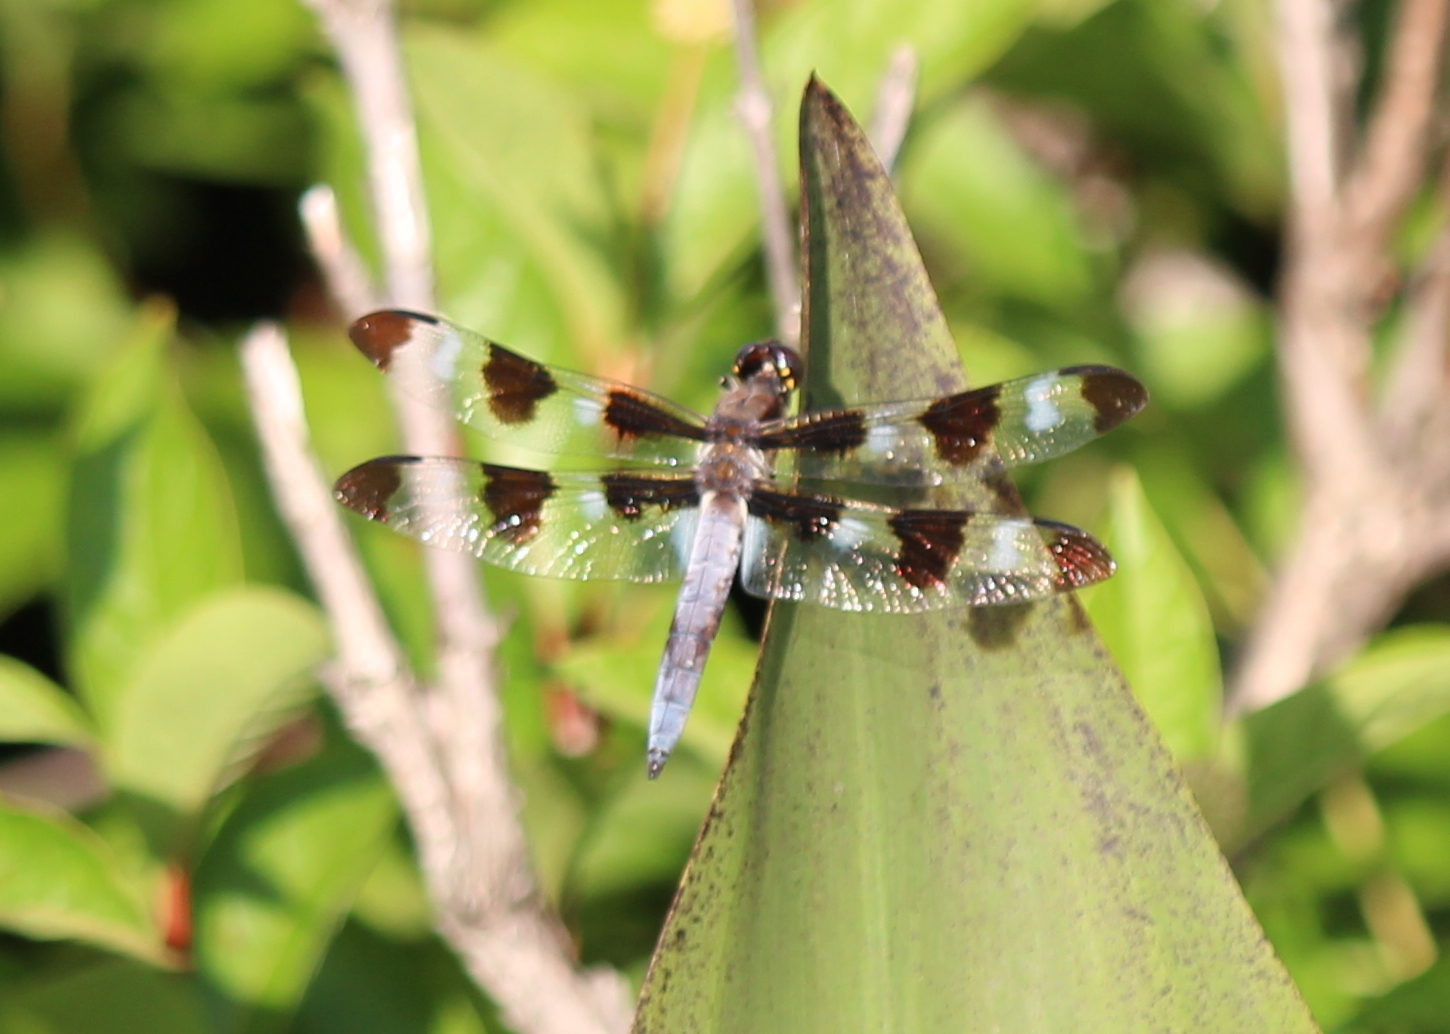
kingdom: Animalia
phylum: Arthropoda
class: Insecta
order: Odonata
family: Libellulidae
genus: Libellula
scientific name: Libellula pulchella
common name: Twelve-spotted skimmer
